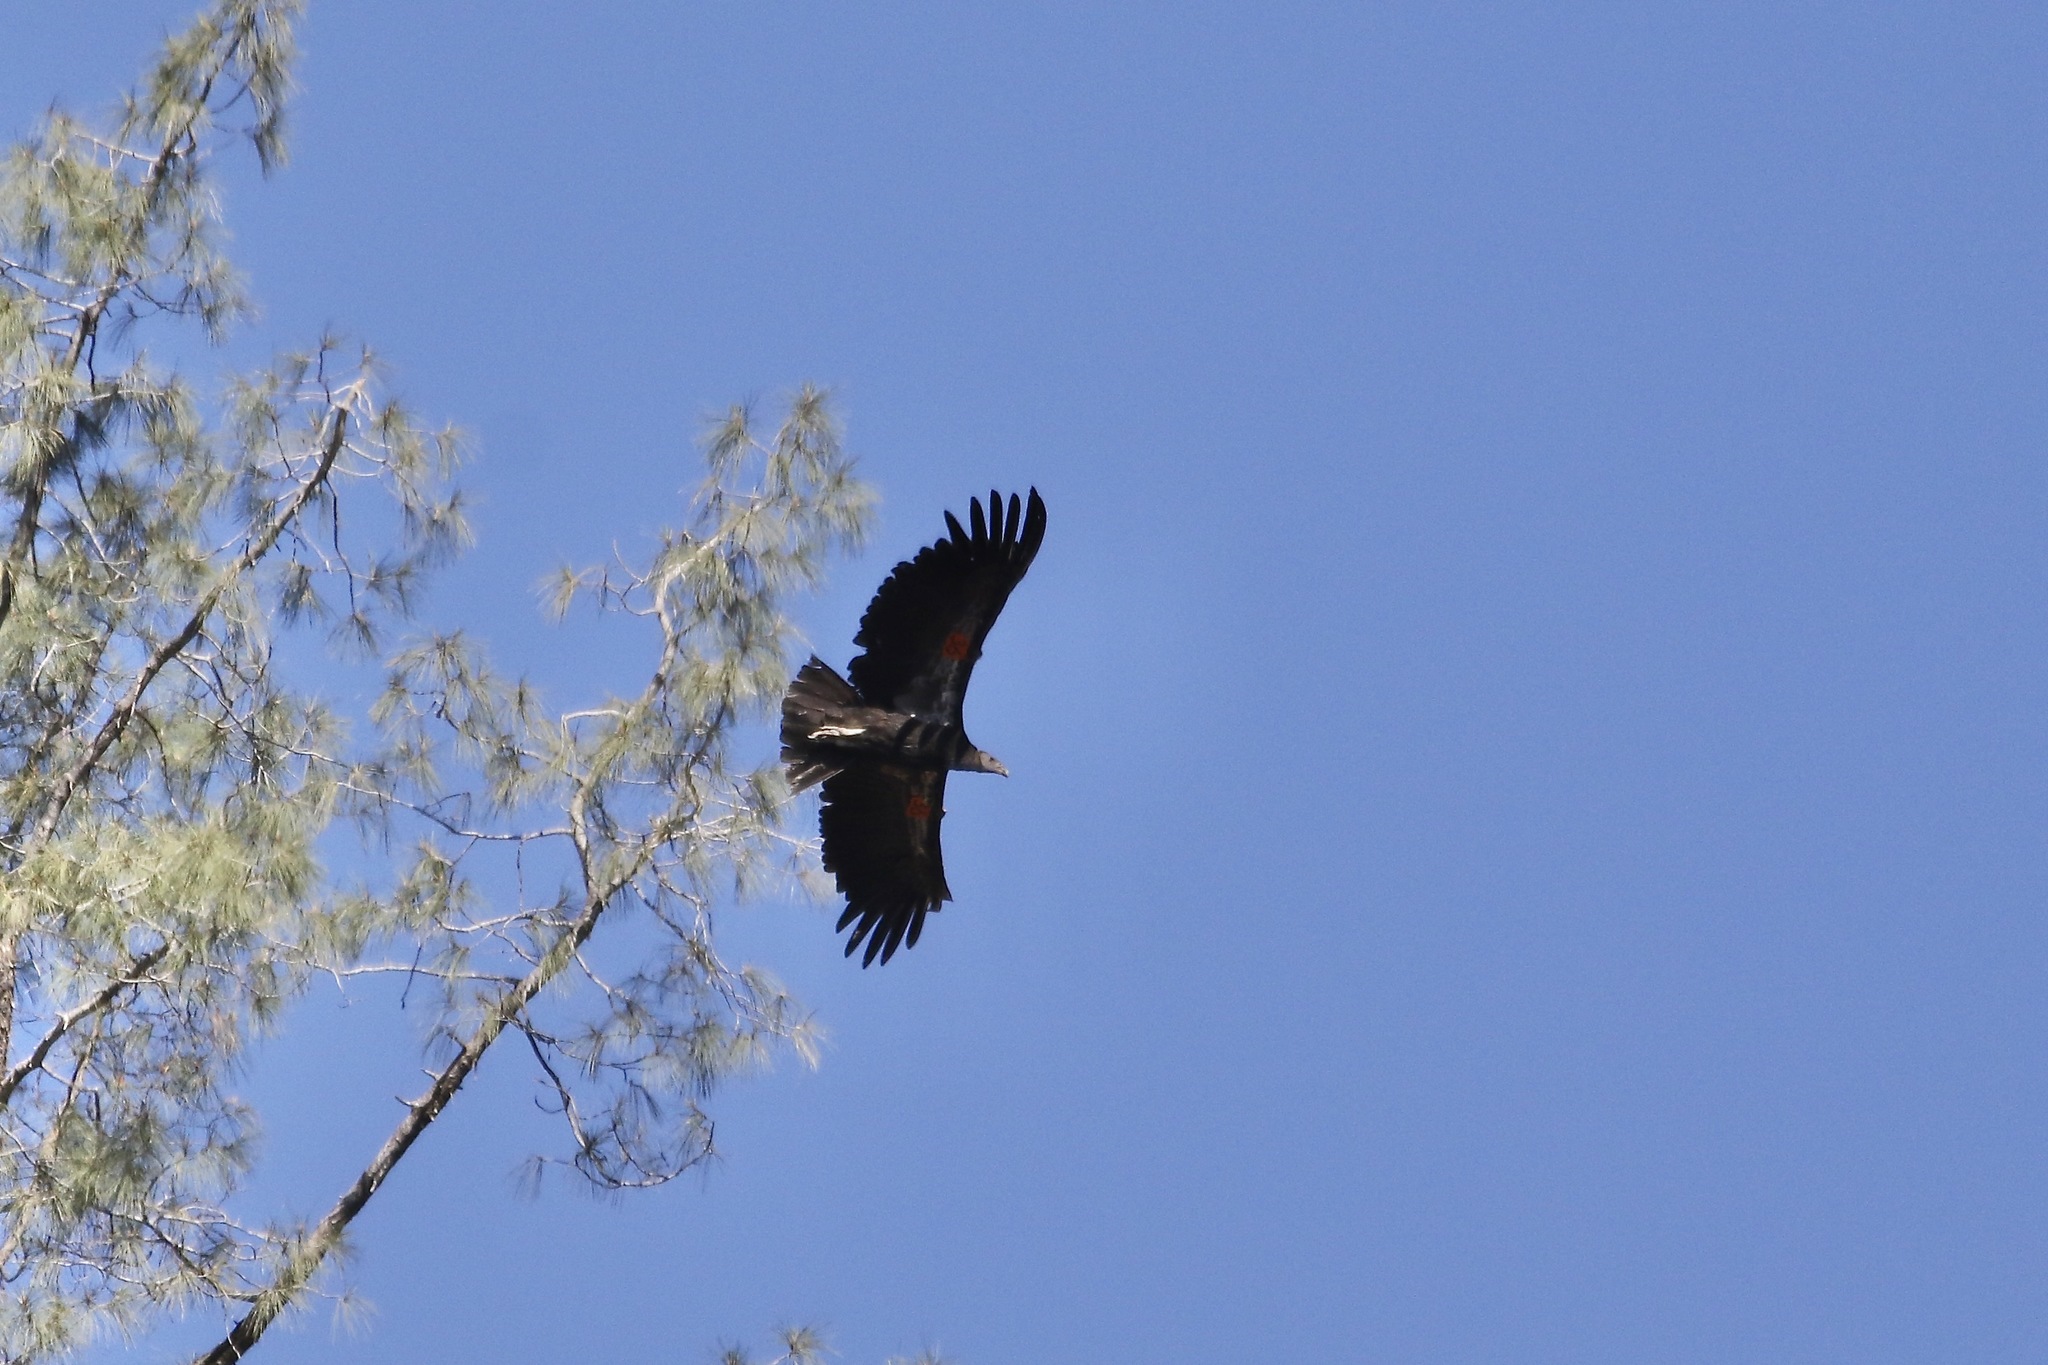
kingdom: Animalia
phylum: Chordata
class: Aves
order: Accipitriformes
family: Cathartidae
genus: Gymnogyps
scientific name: Gymnogyps californianus
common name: California condor
